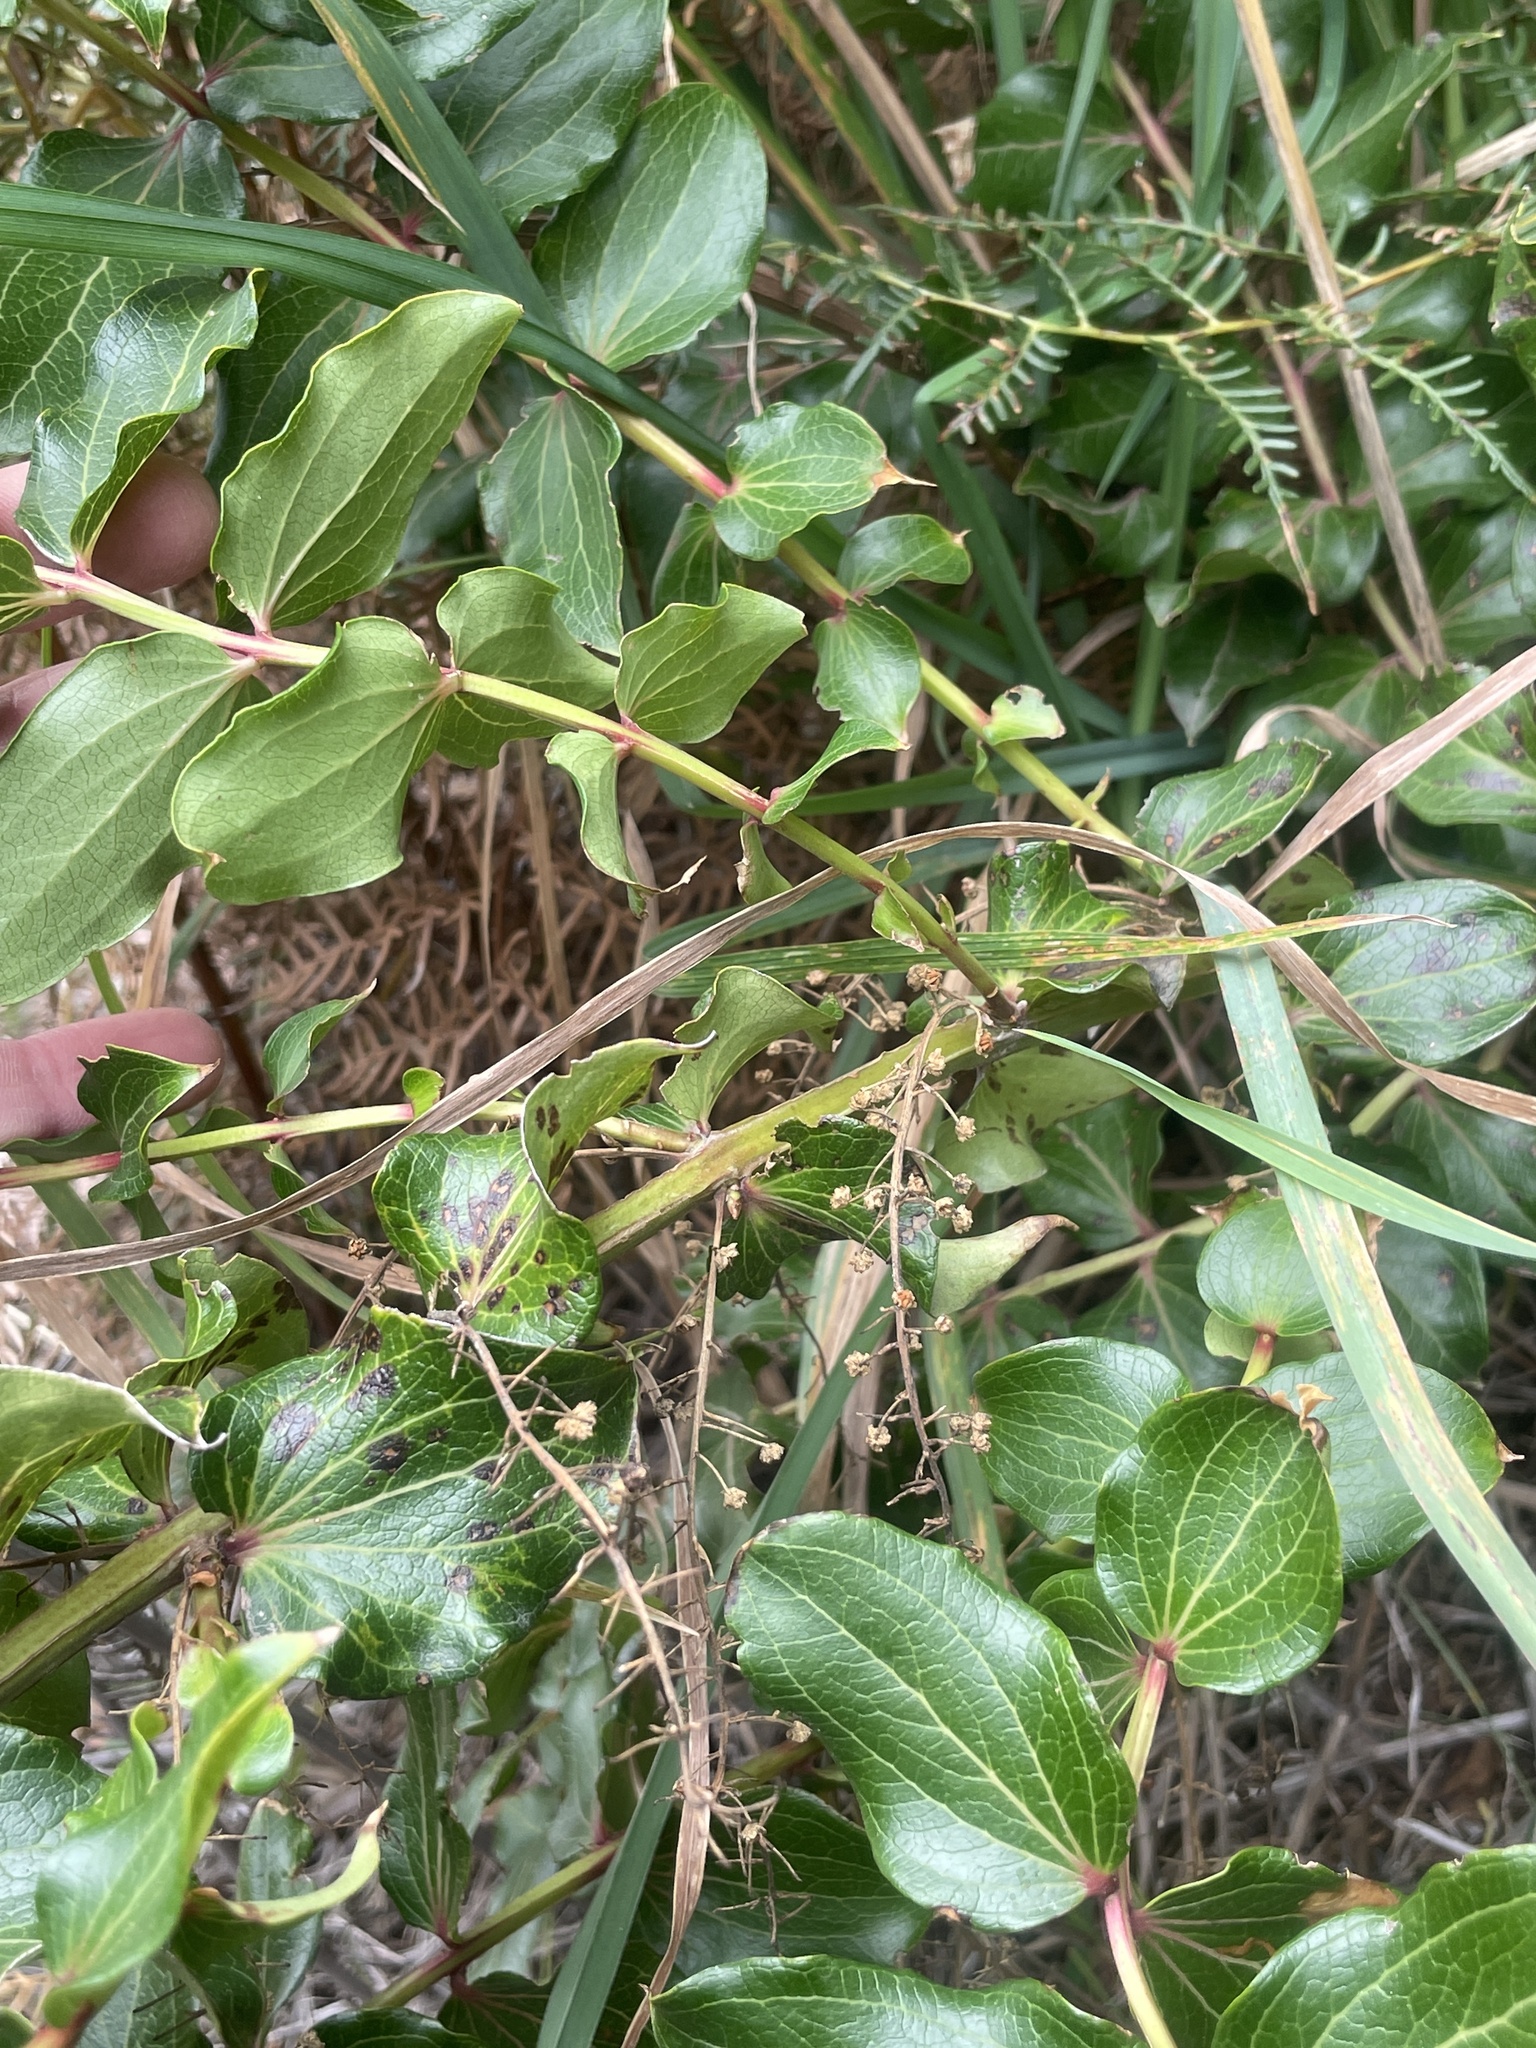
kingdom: Plantae
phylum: Tracheophyta
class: Magnoliopsida
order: Cucurbitales
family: Coriariaceae
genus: Coriaria
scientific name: Coriaria sarmentosa
